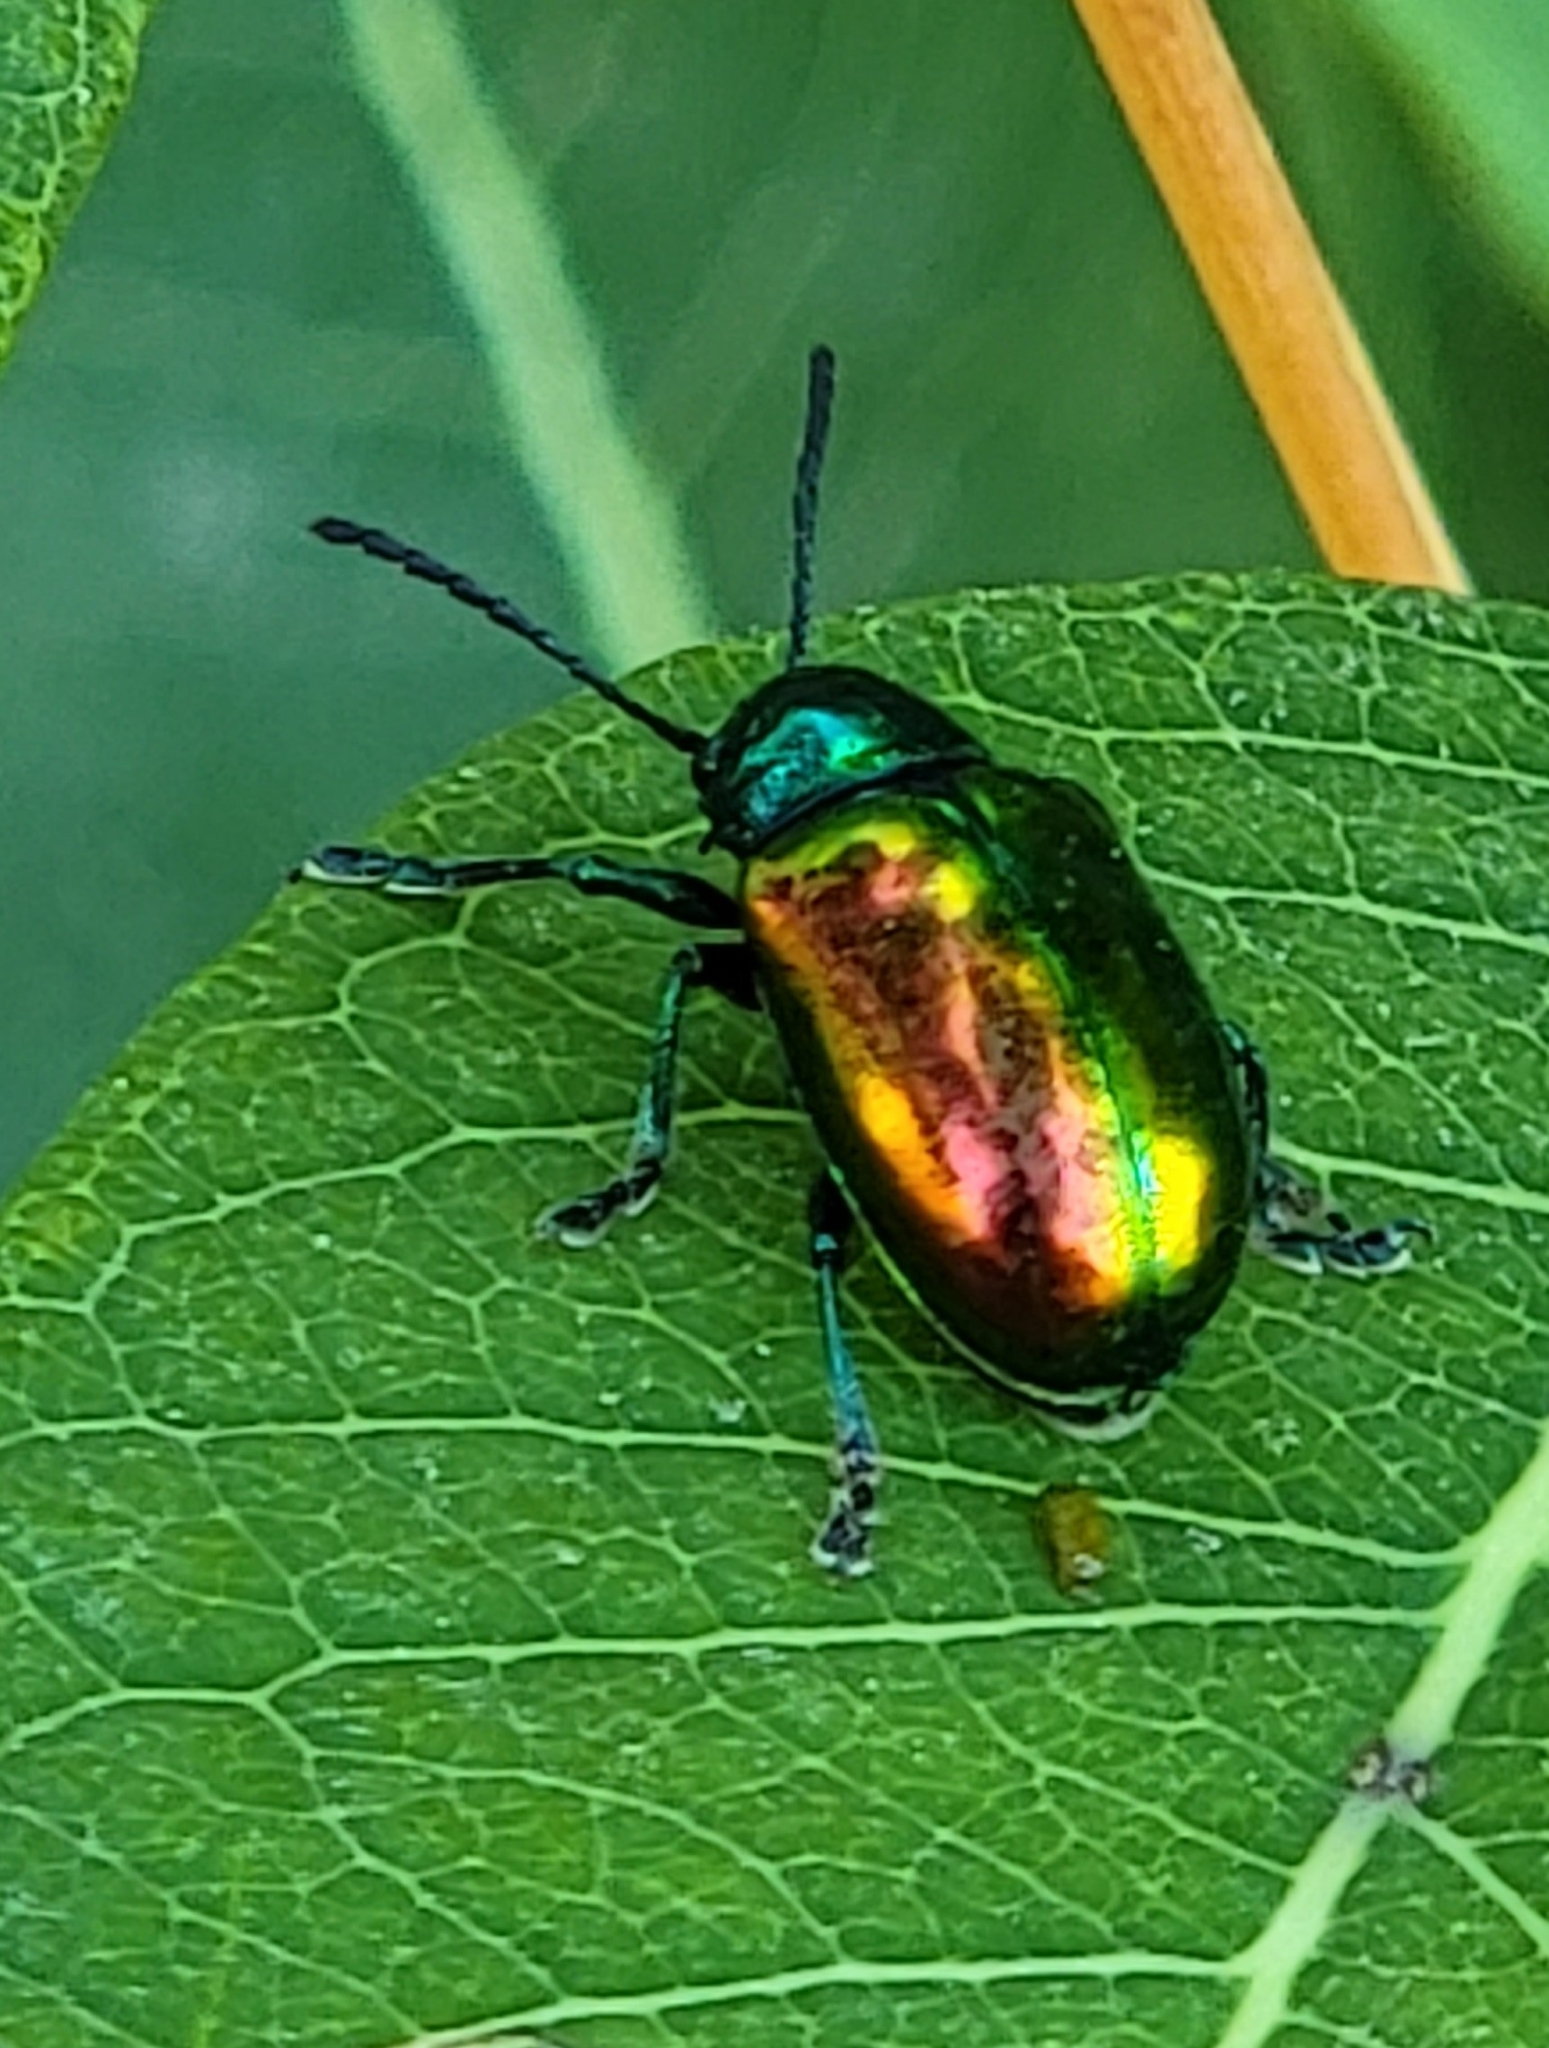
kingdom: Animalia
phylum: Arthropoda
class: Insecta
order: Coleoptera
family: Chrysomelidae
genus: Chrysochus
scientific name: Chrysochus auratus
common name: Dogbane leaf beetle
